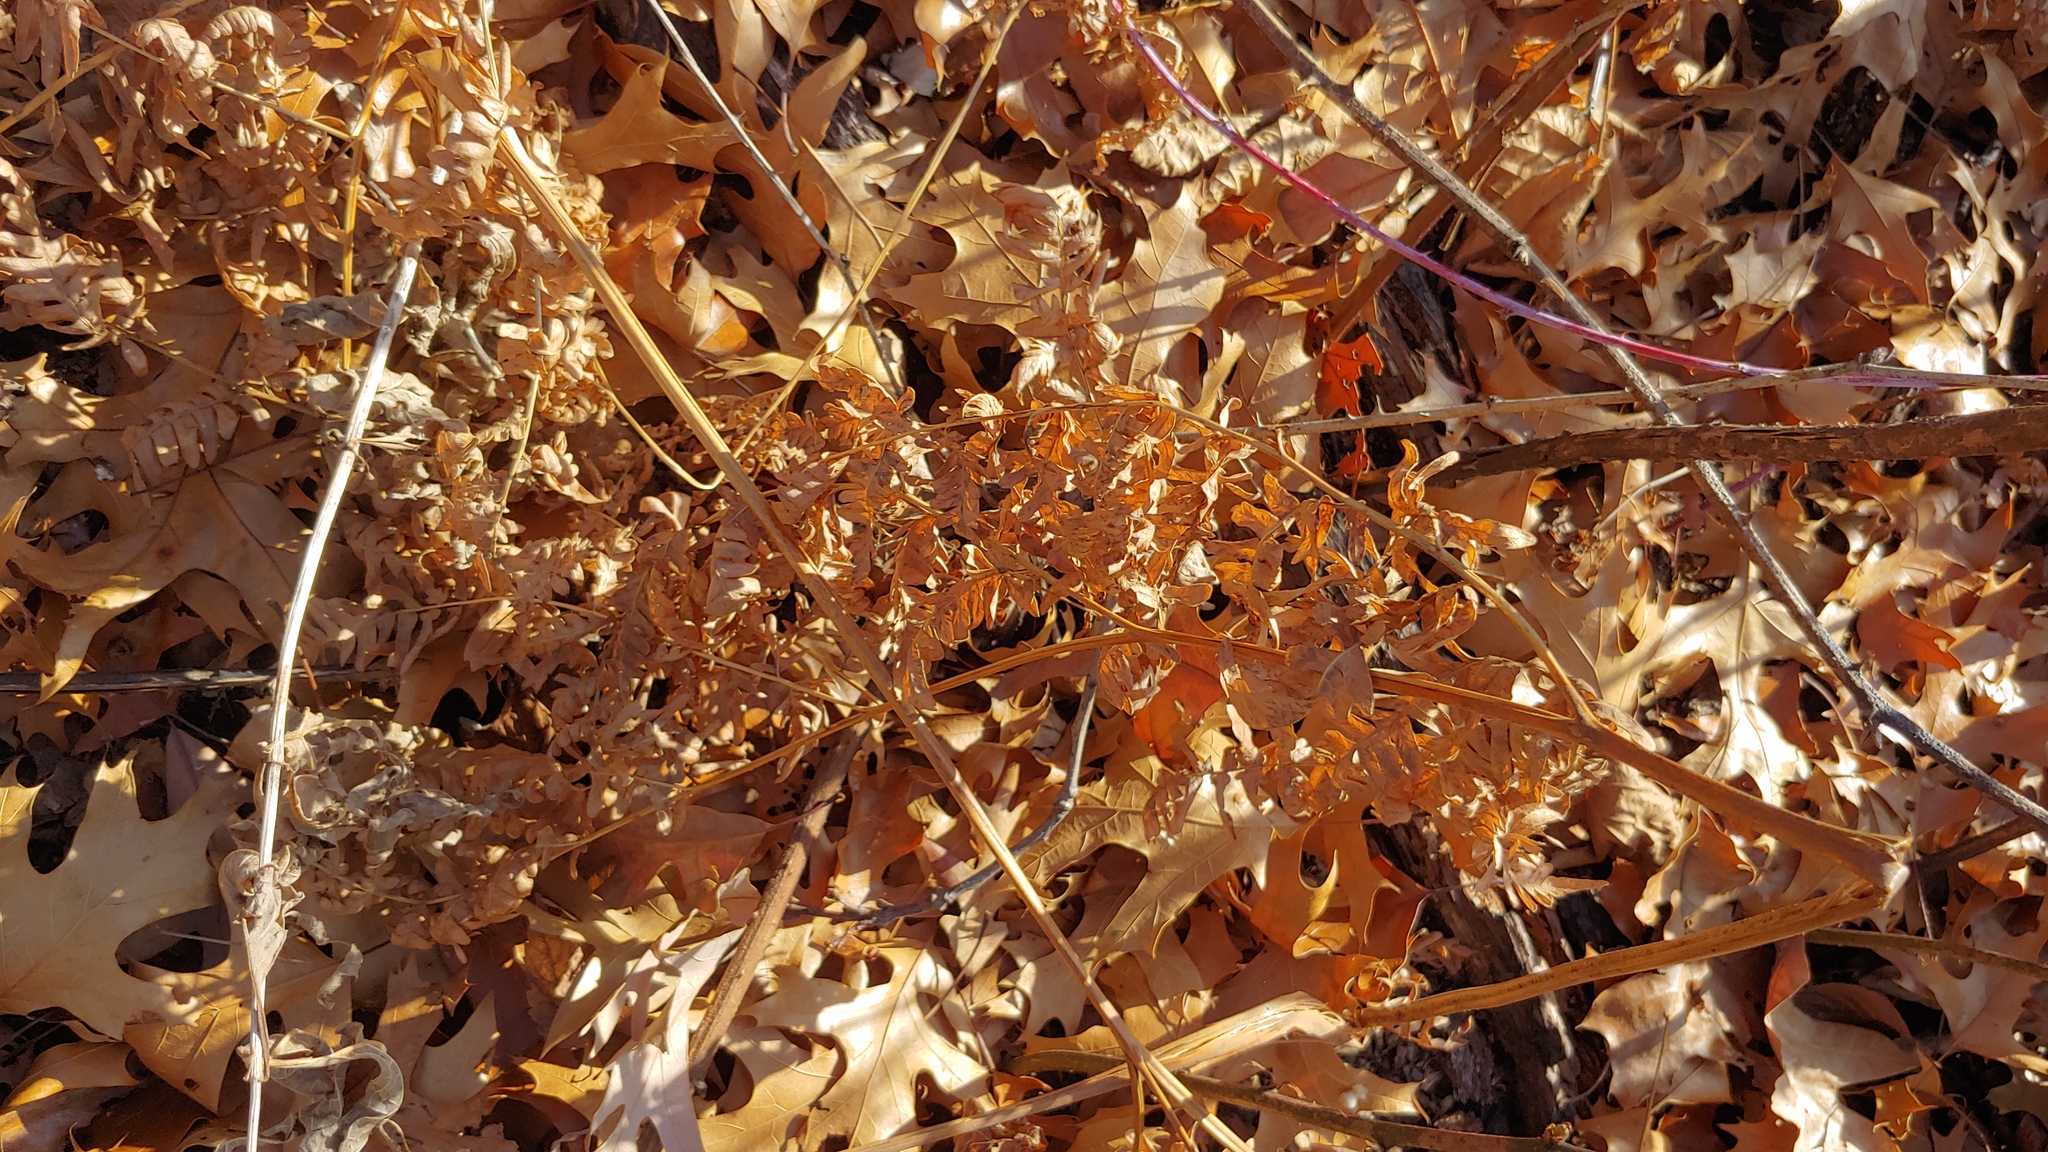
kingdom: Plantae
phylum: Tracheophyta
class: Polypodiopsida
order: Polypodiales
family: Dennstaedtiaceae
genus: Pteridium
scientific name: Pteridium aquilinum
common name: Bracken
